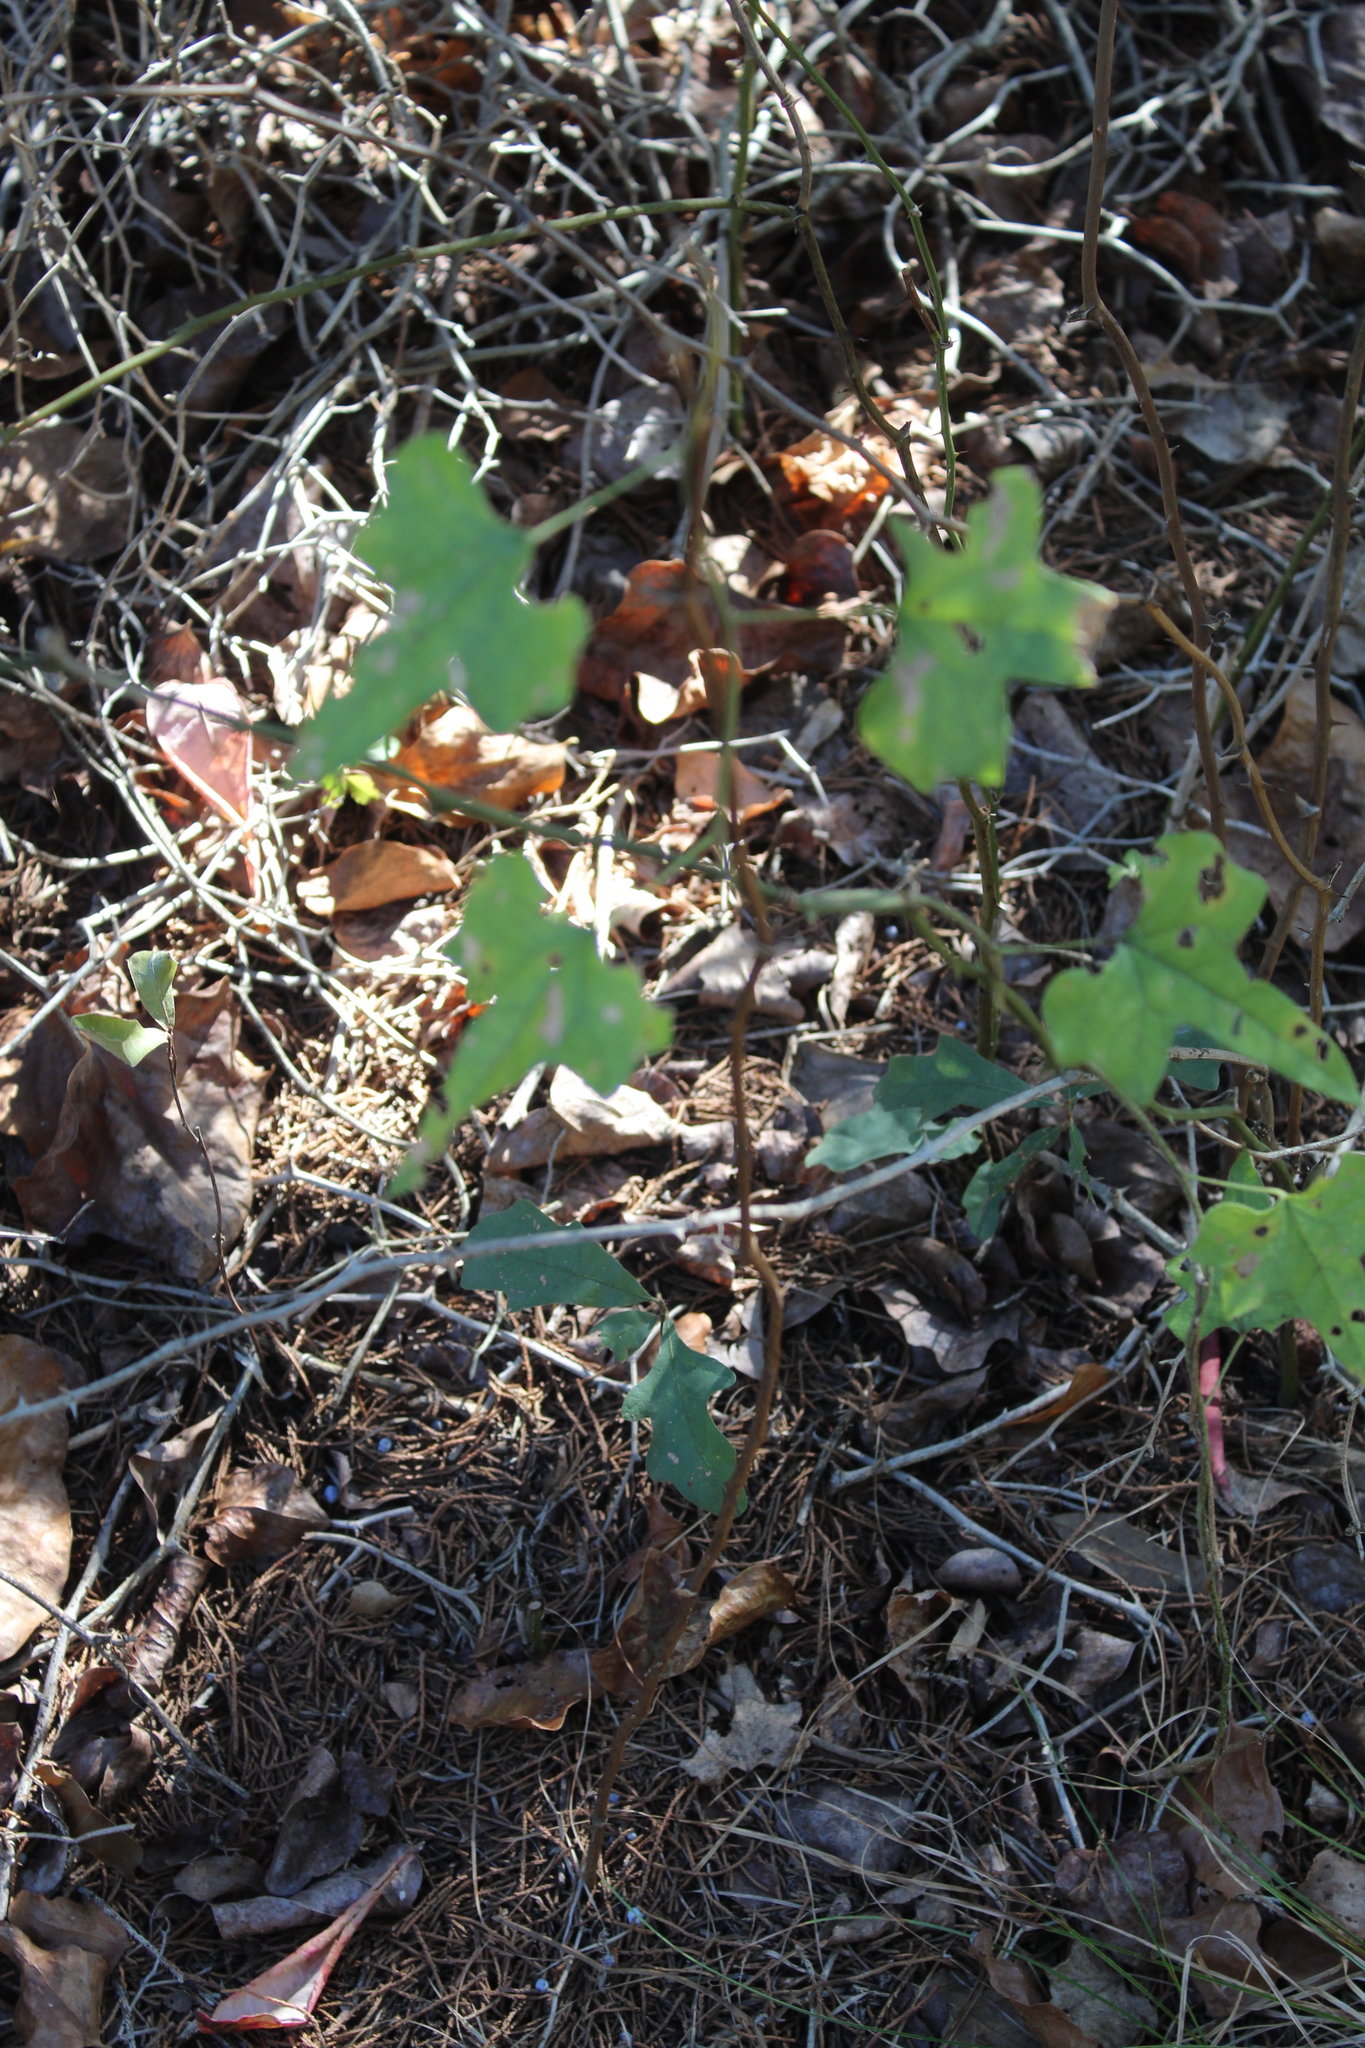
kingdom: Plantae
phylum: Tracheophyta
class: Magnoliopsida
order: Ranunculales
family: Menispermaceae
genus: Cocculus
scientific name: Cocculus carolinus
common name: Carolina moonseed
